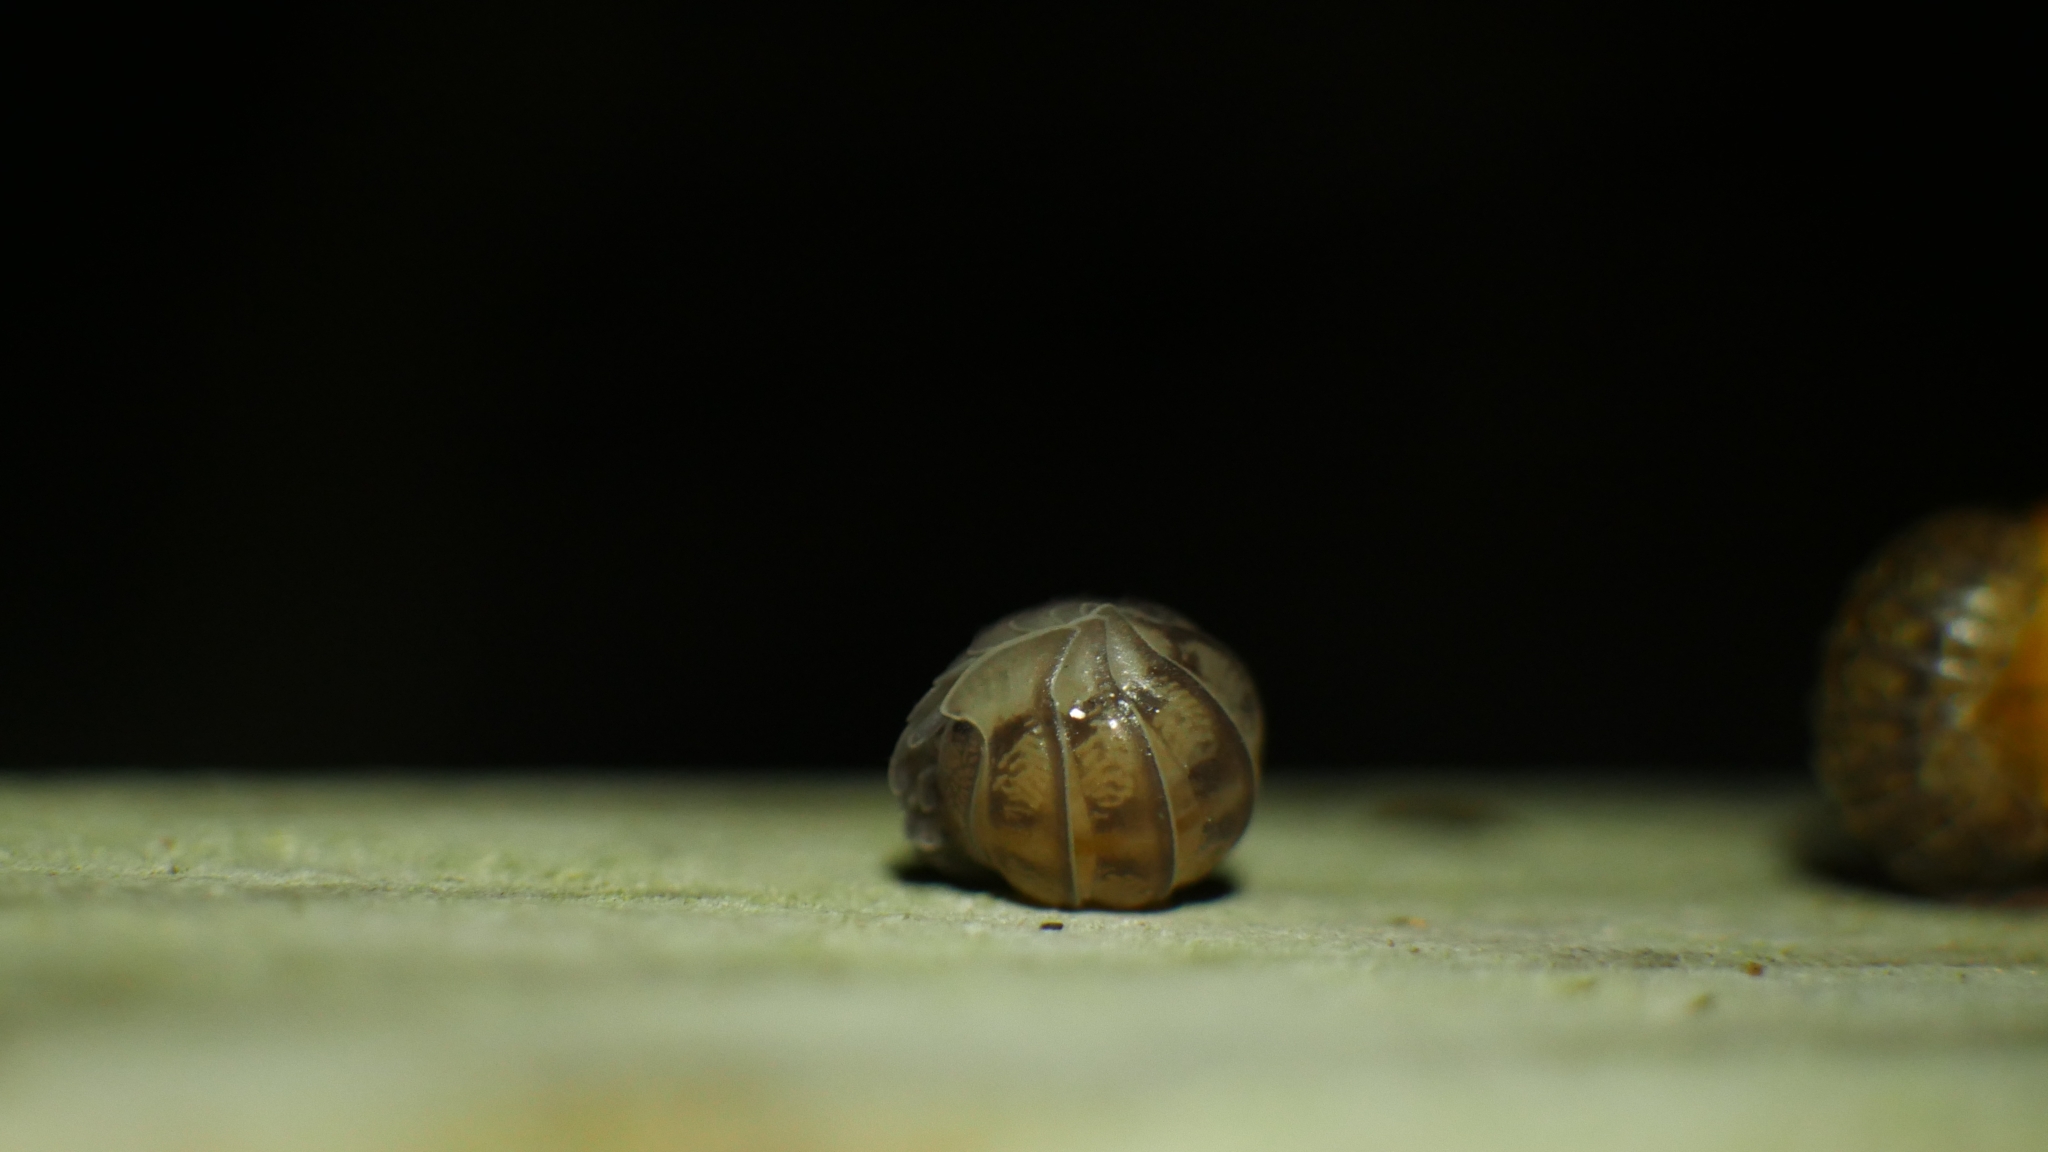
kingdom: Animalia
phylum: Arthropoda
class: Malacostraca
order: Isopoda
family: Armadillidiidae
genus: Armadillidium
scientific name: Armadillidium nasatum
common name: Isopod
